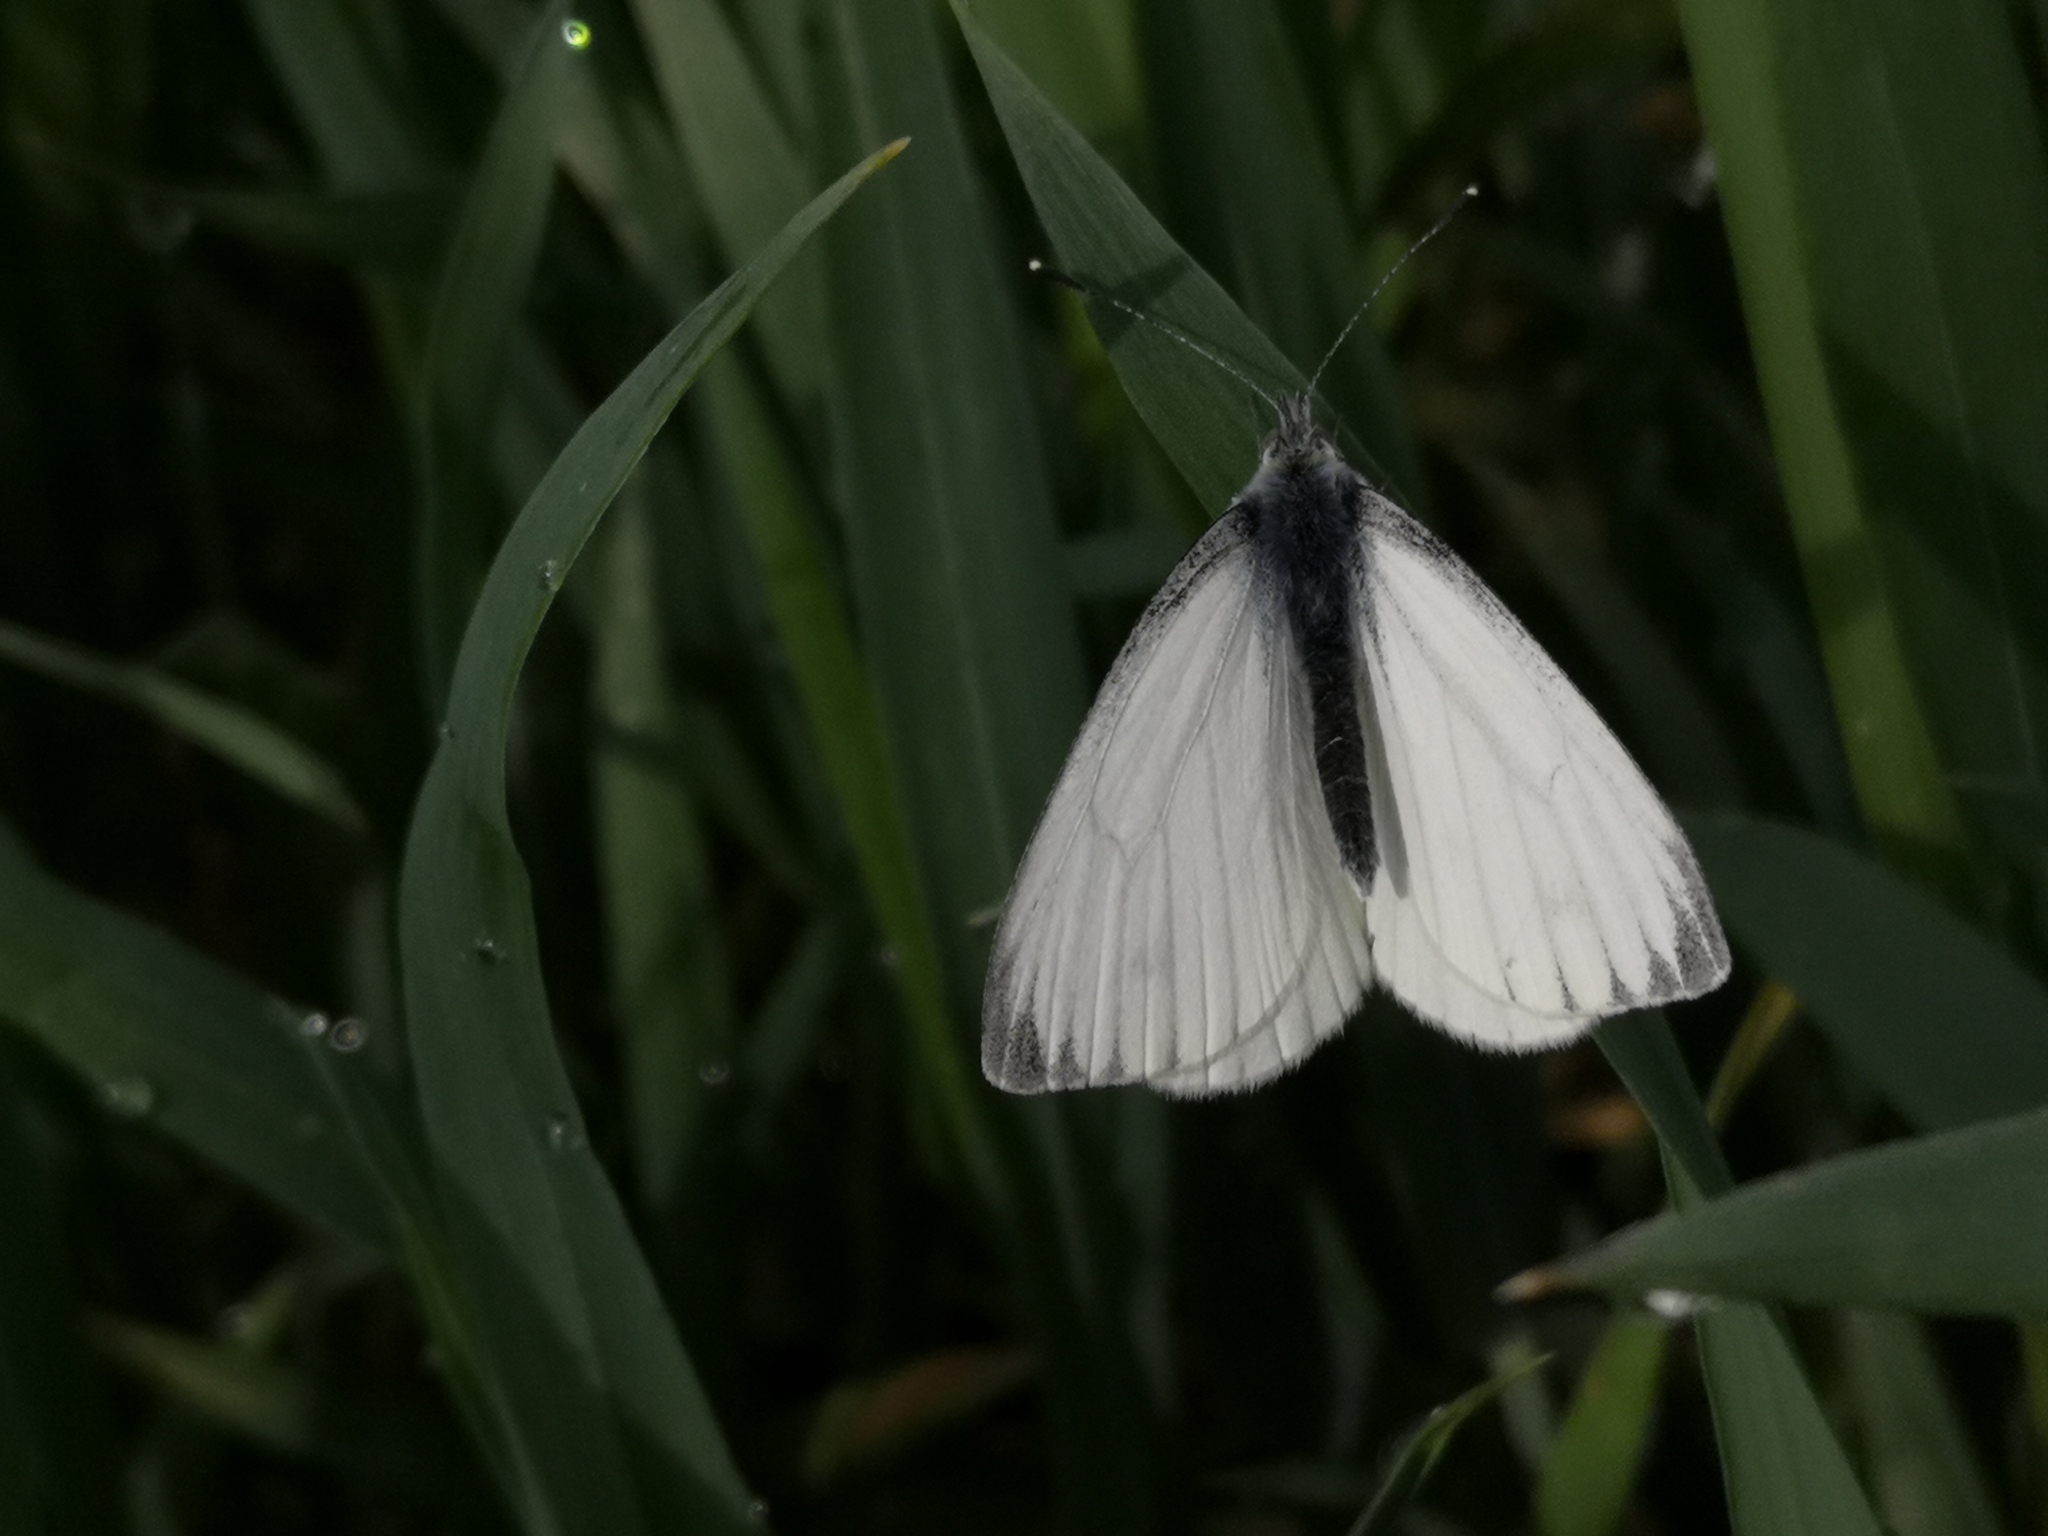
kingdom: Animalia
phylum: Arthropoda
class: Insecta
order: Lepidoptera
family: Pieridae
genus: Pieris
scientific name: Pieris napi
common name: Green-veined white
